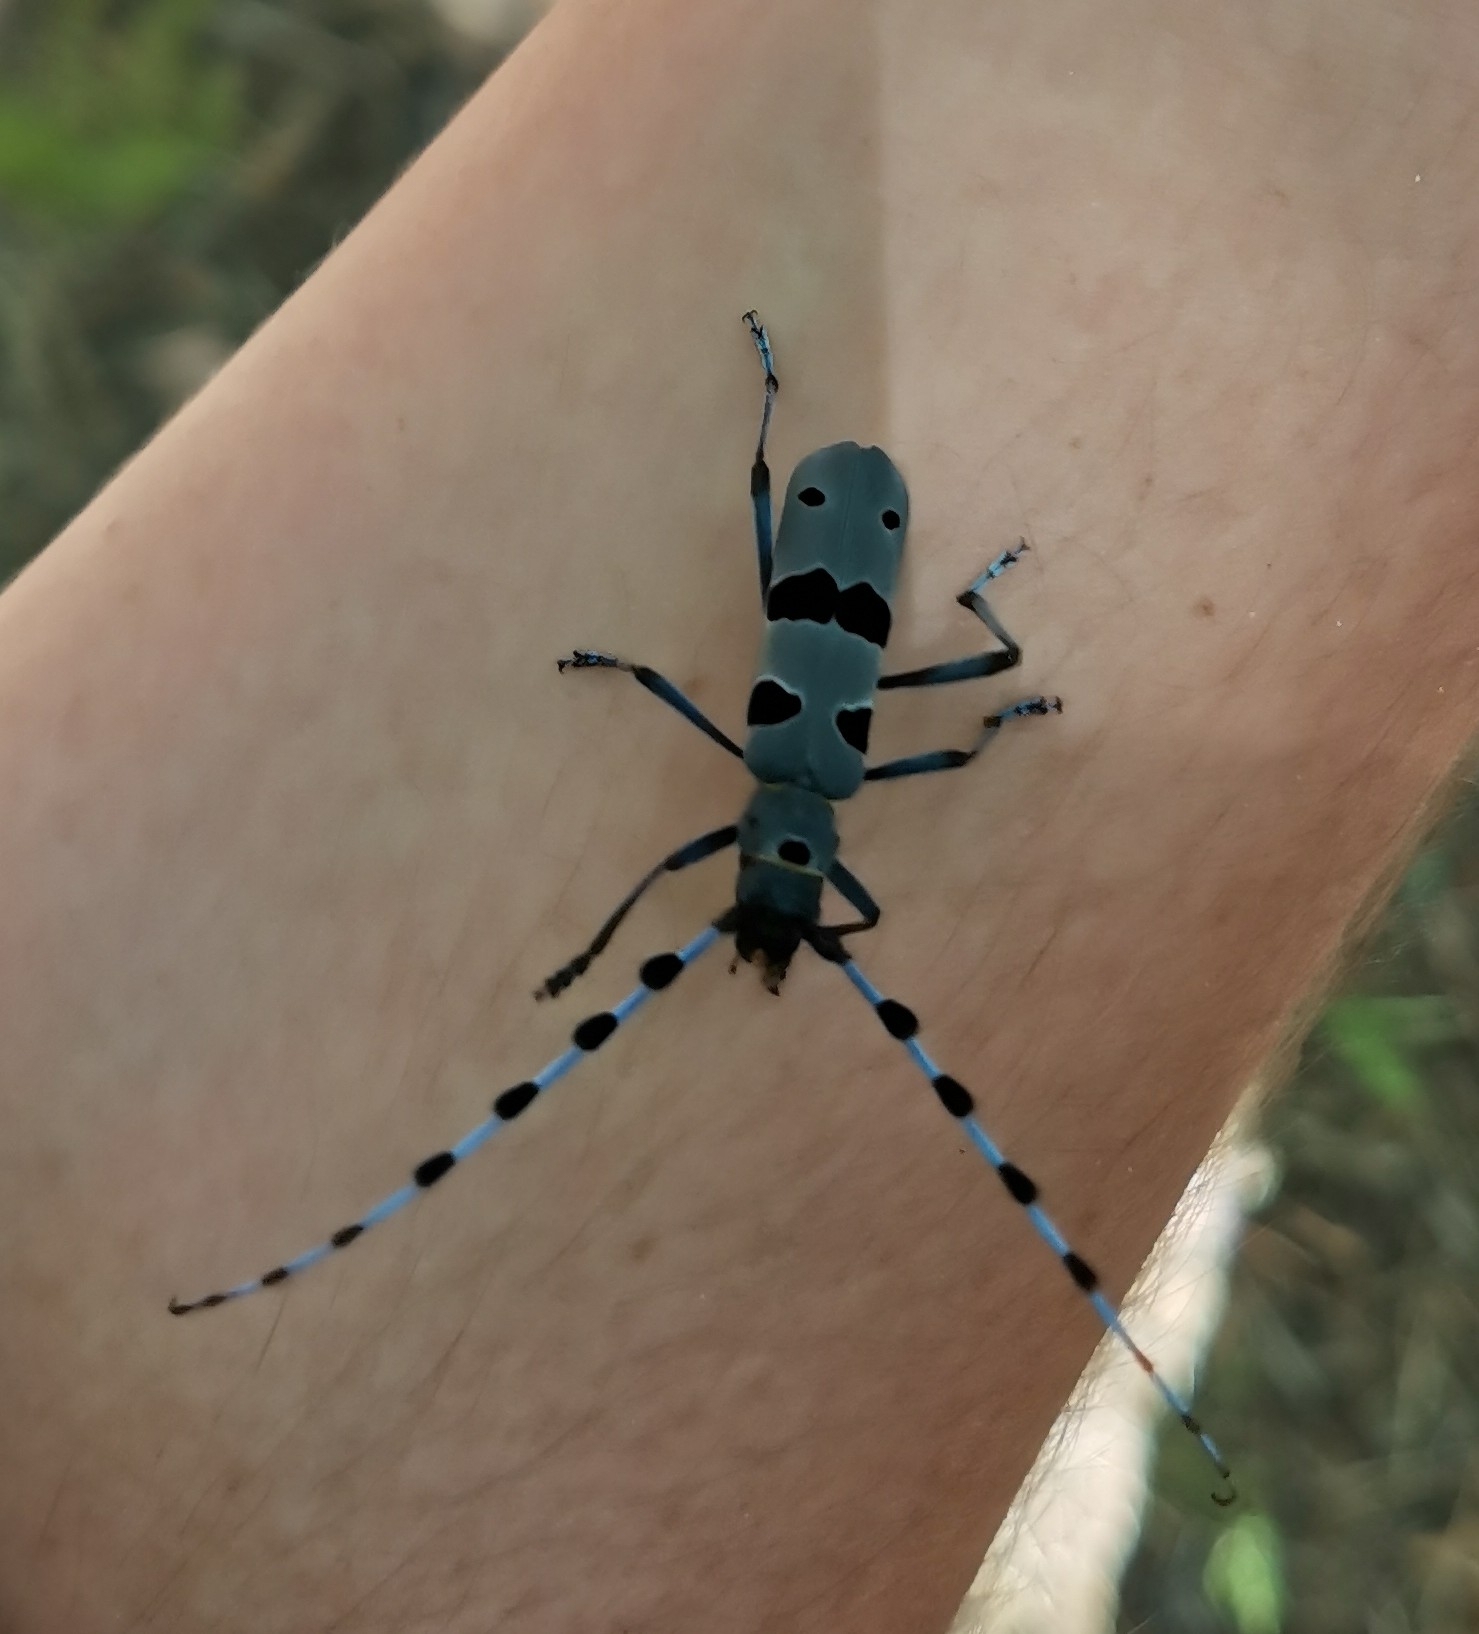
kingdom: Animalia
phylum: Arthropoda
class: Insecta
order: Coleoptera
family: Cerambycidae
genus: Rosalia
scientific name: Rosalia alpina
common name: Rosalia longicorn
